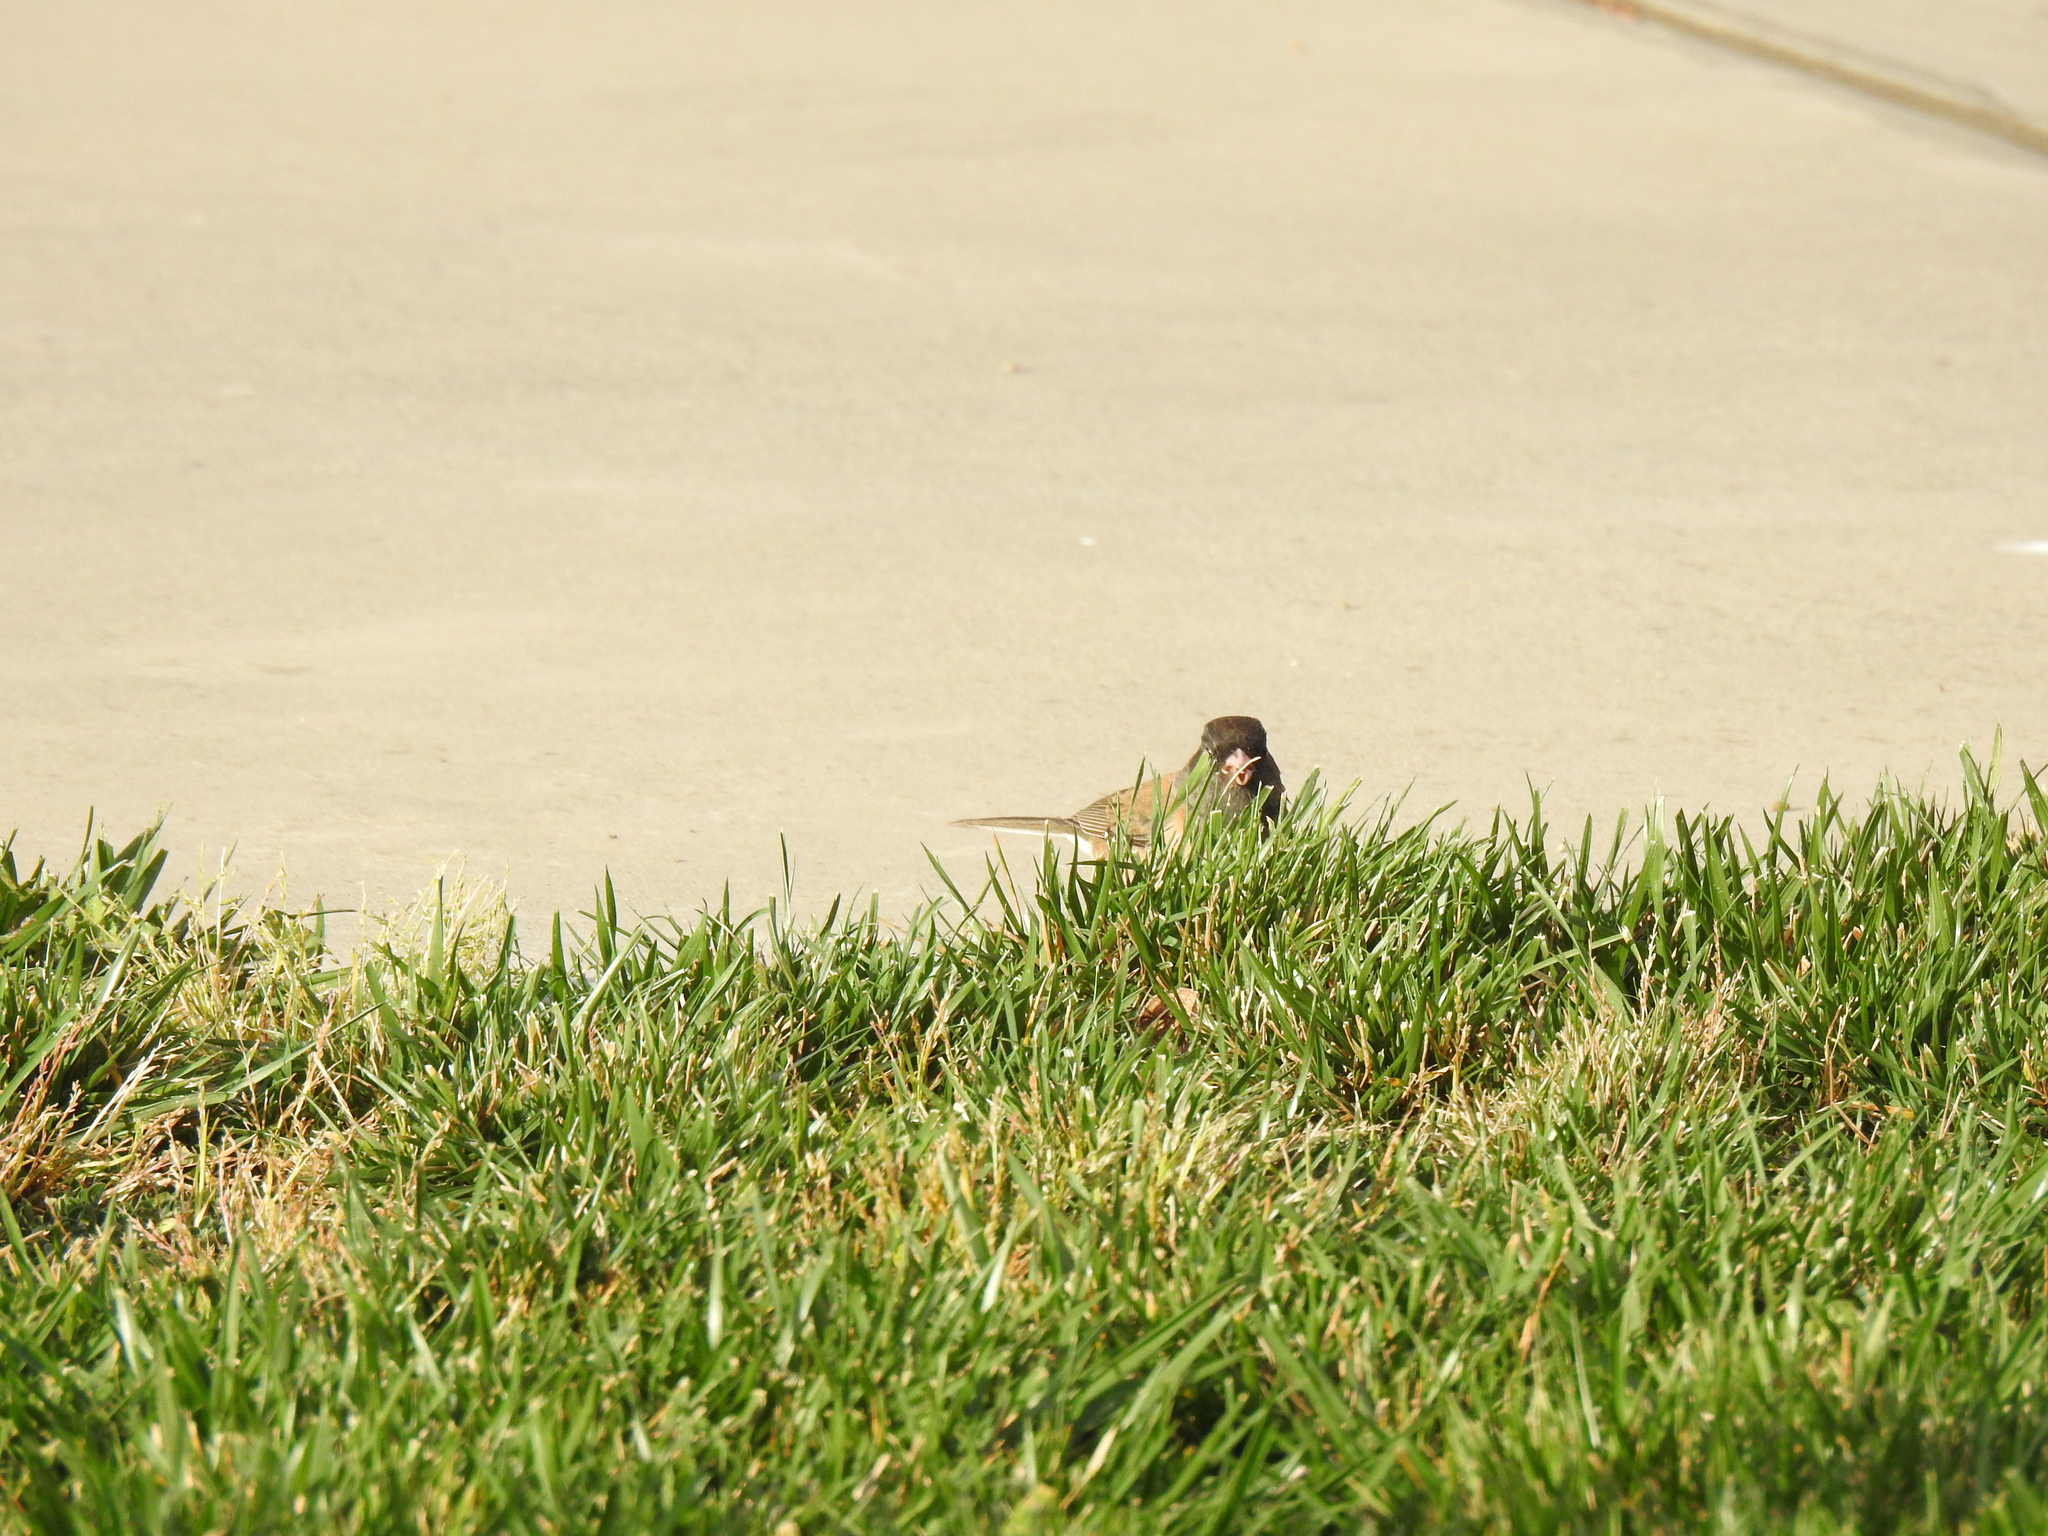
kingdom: Animalia
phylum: Chordata
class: Aves
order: Passeriformes
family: Passerellidae
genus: Junco
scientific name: Junco hyemalis
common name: Dark-eyed junco
